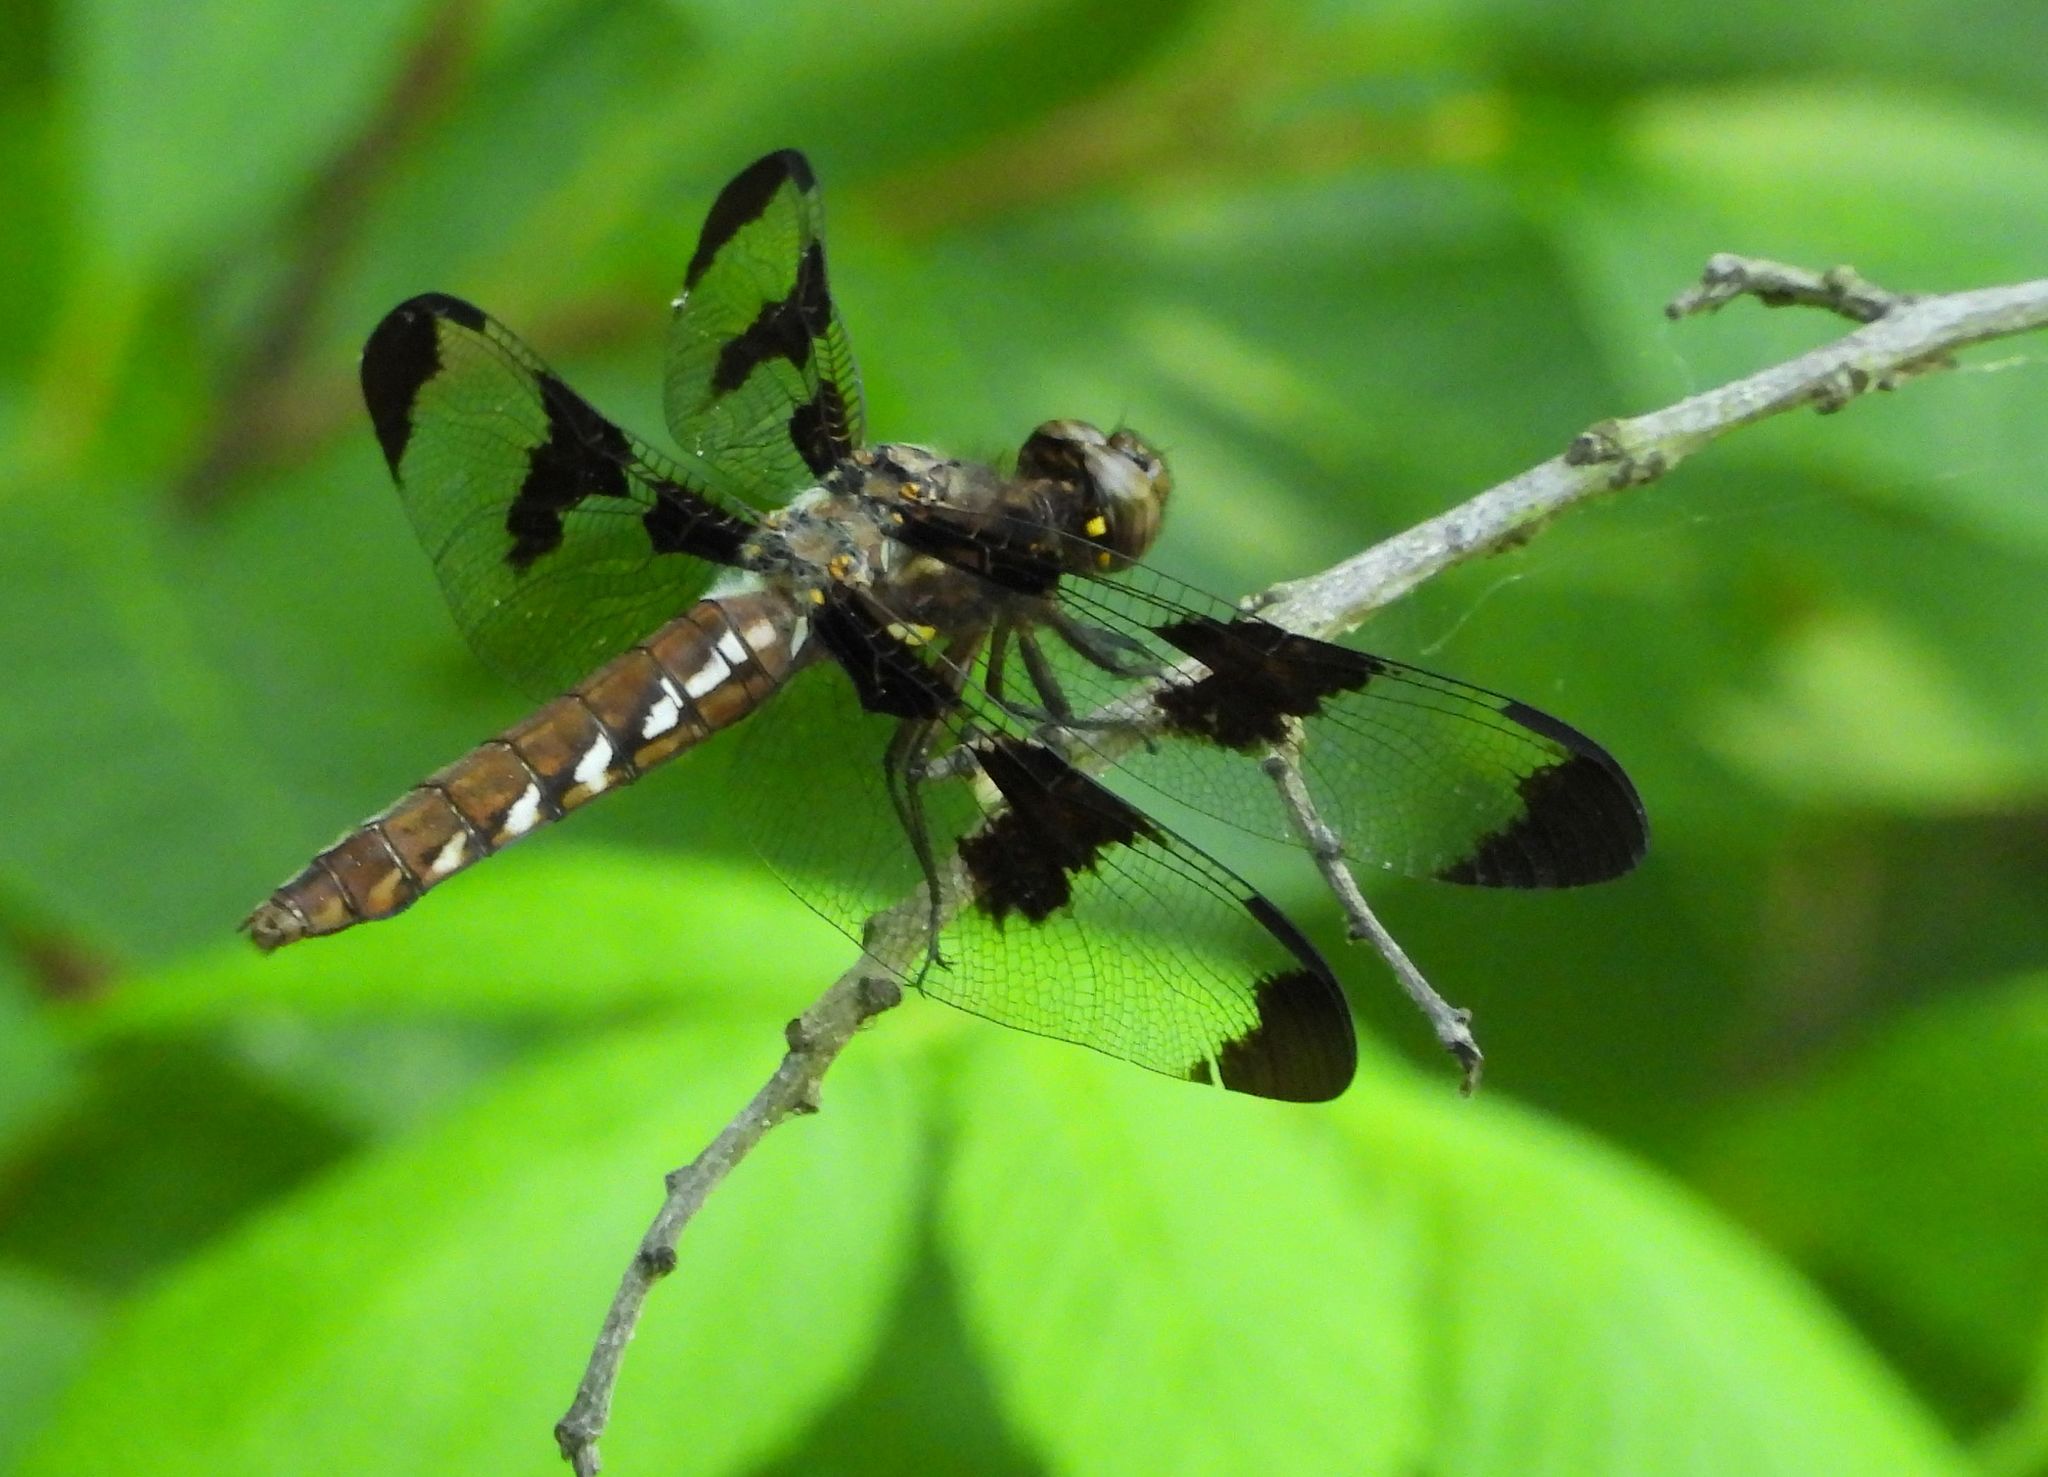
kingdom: Animalia
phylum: Arthropoda
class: Insecta
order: Odonata
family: Libellulidae
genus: Plathemis
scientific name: Plathemis lydia
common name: Common whitetail
